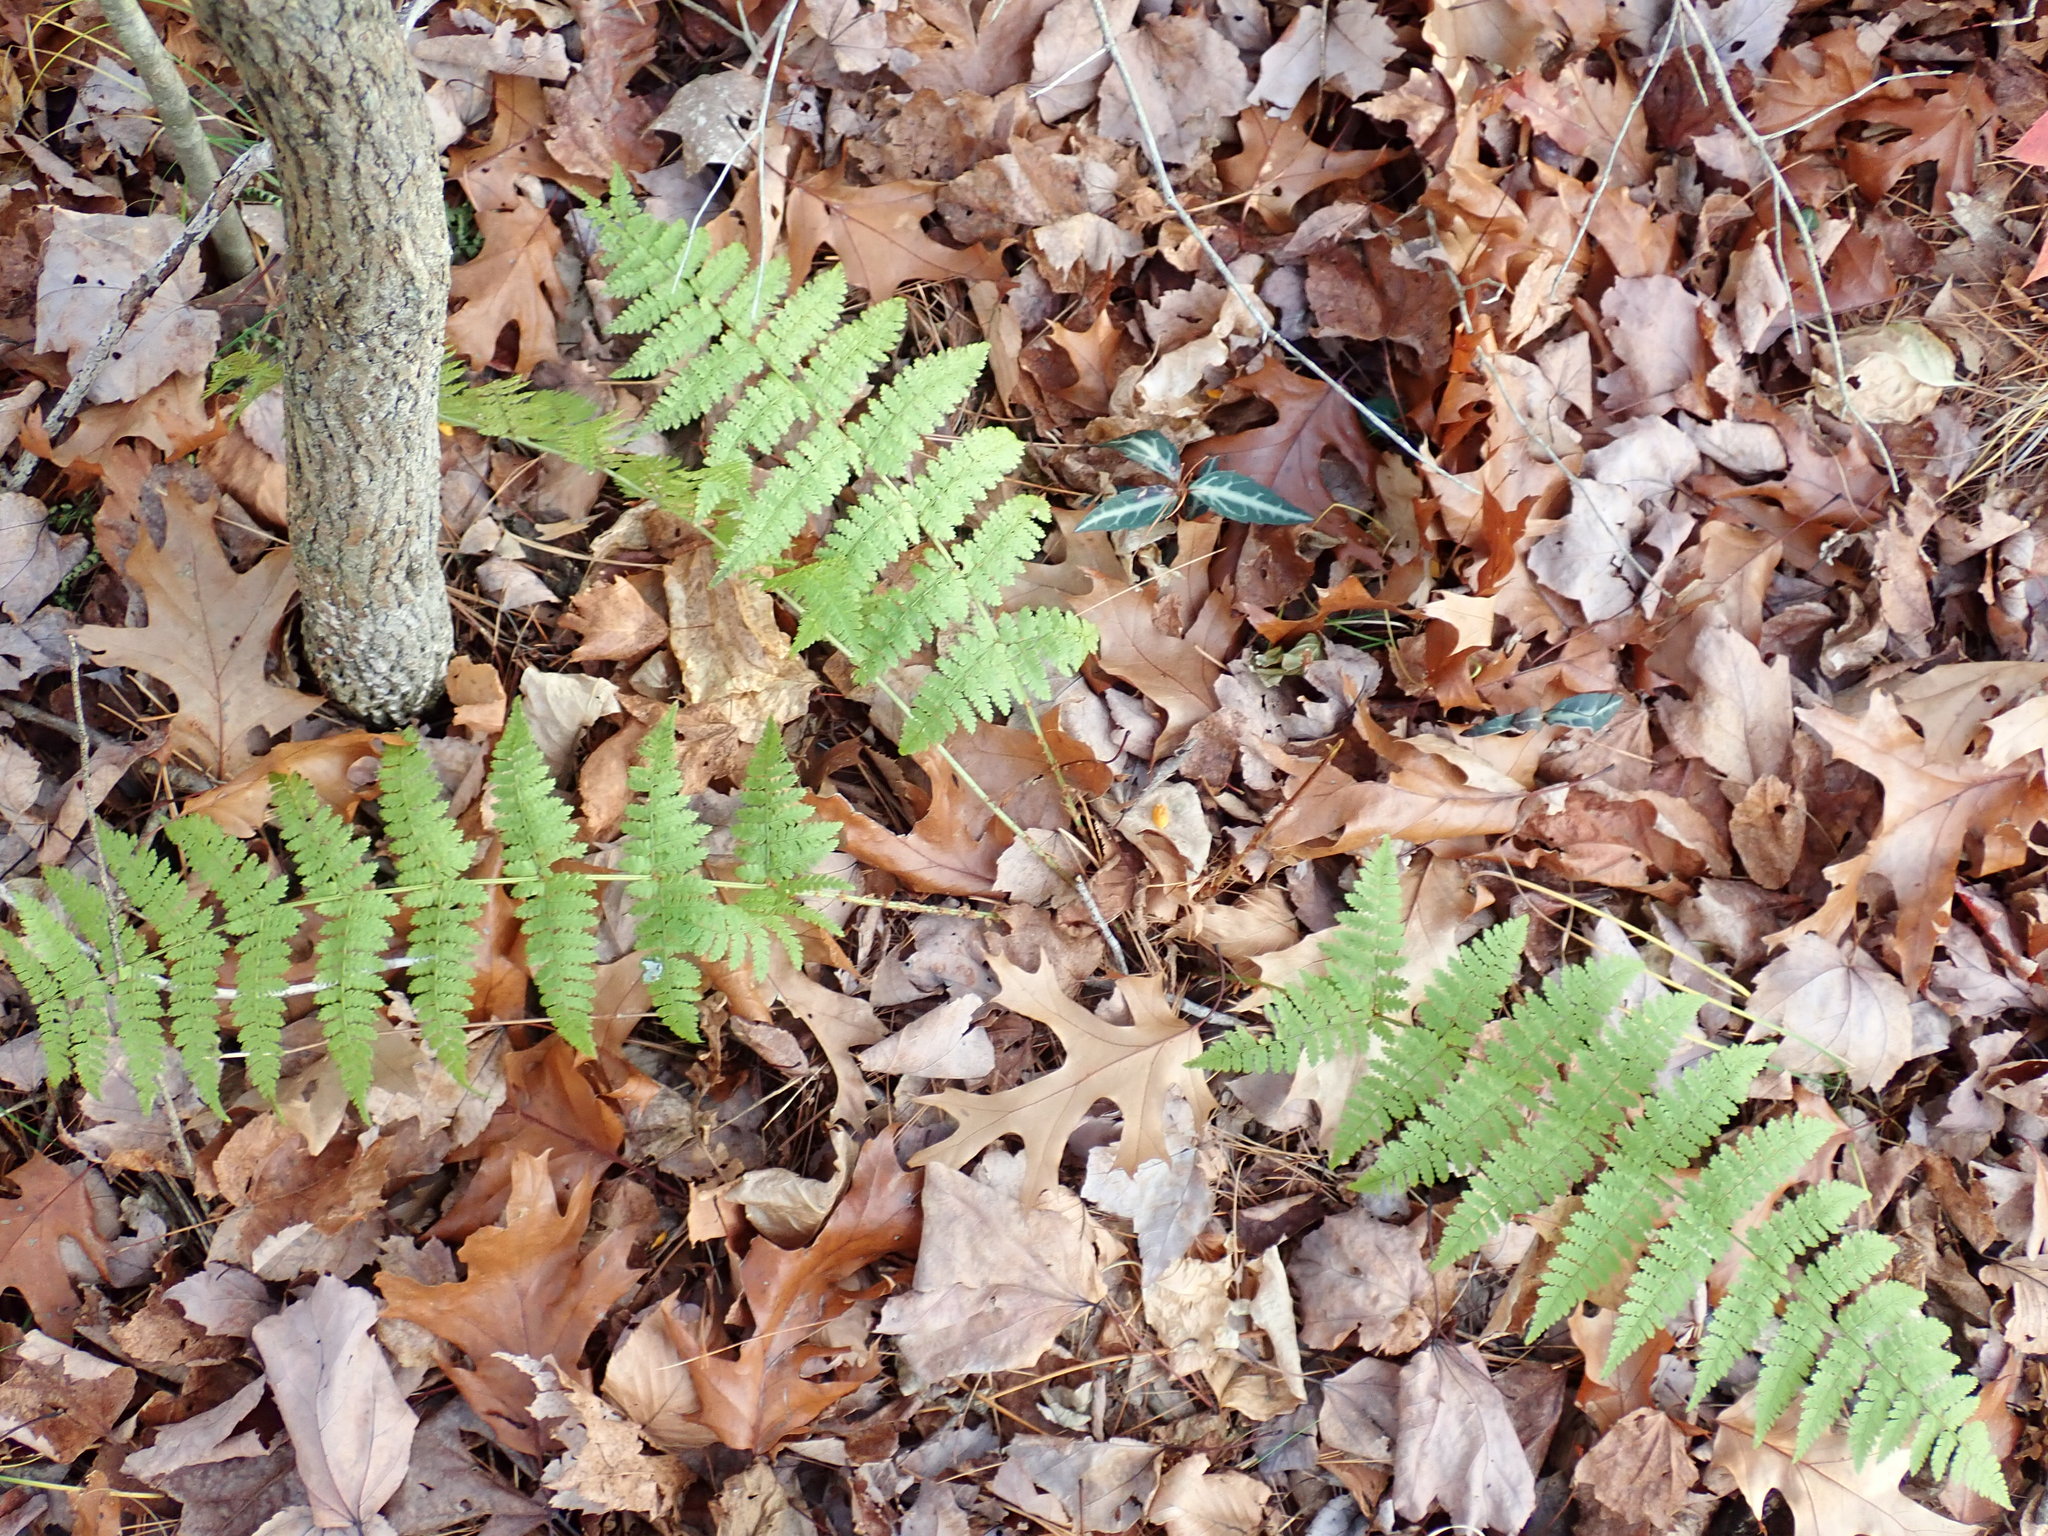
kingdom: Plantae
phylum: Tracheophyta
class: Polypodiopsida
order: Polypodiales
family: Dryopteridaceae
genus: Dryopteris
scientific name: Dryopteris intermedia
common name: Evergreen wood fern
